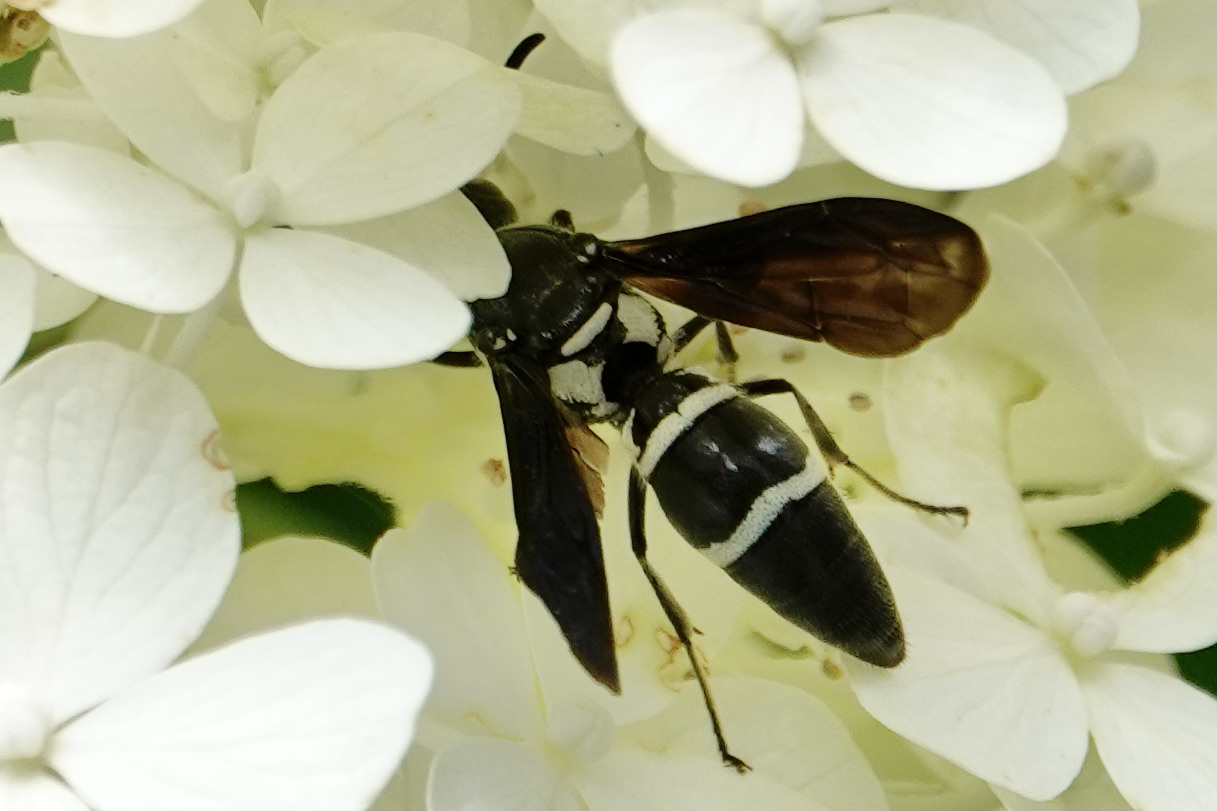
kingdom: Animalia
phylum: Arthropoda
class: Insecta
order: Hymenoptera
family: Eumenidae
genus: Pseudodynerus
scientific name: Pseudodynerus quadrisectus
